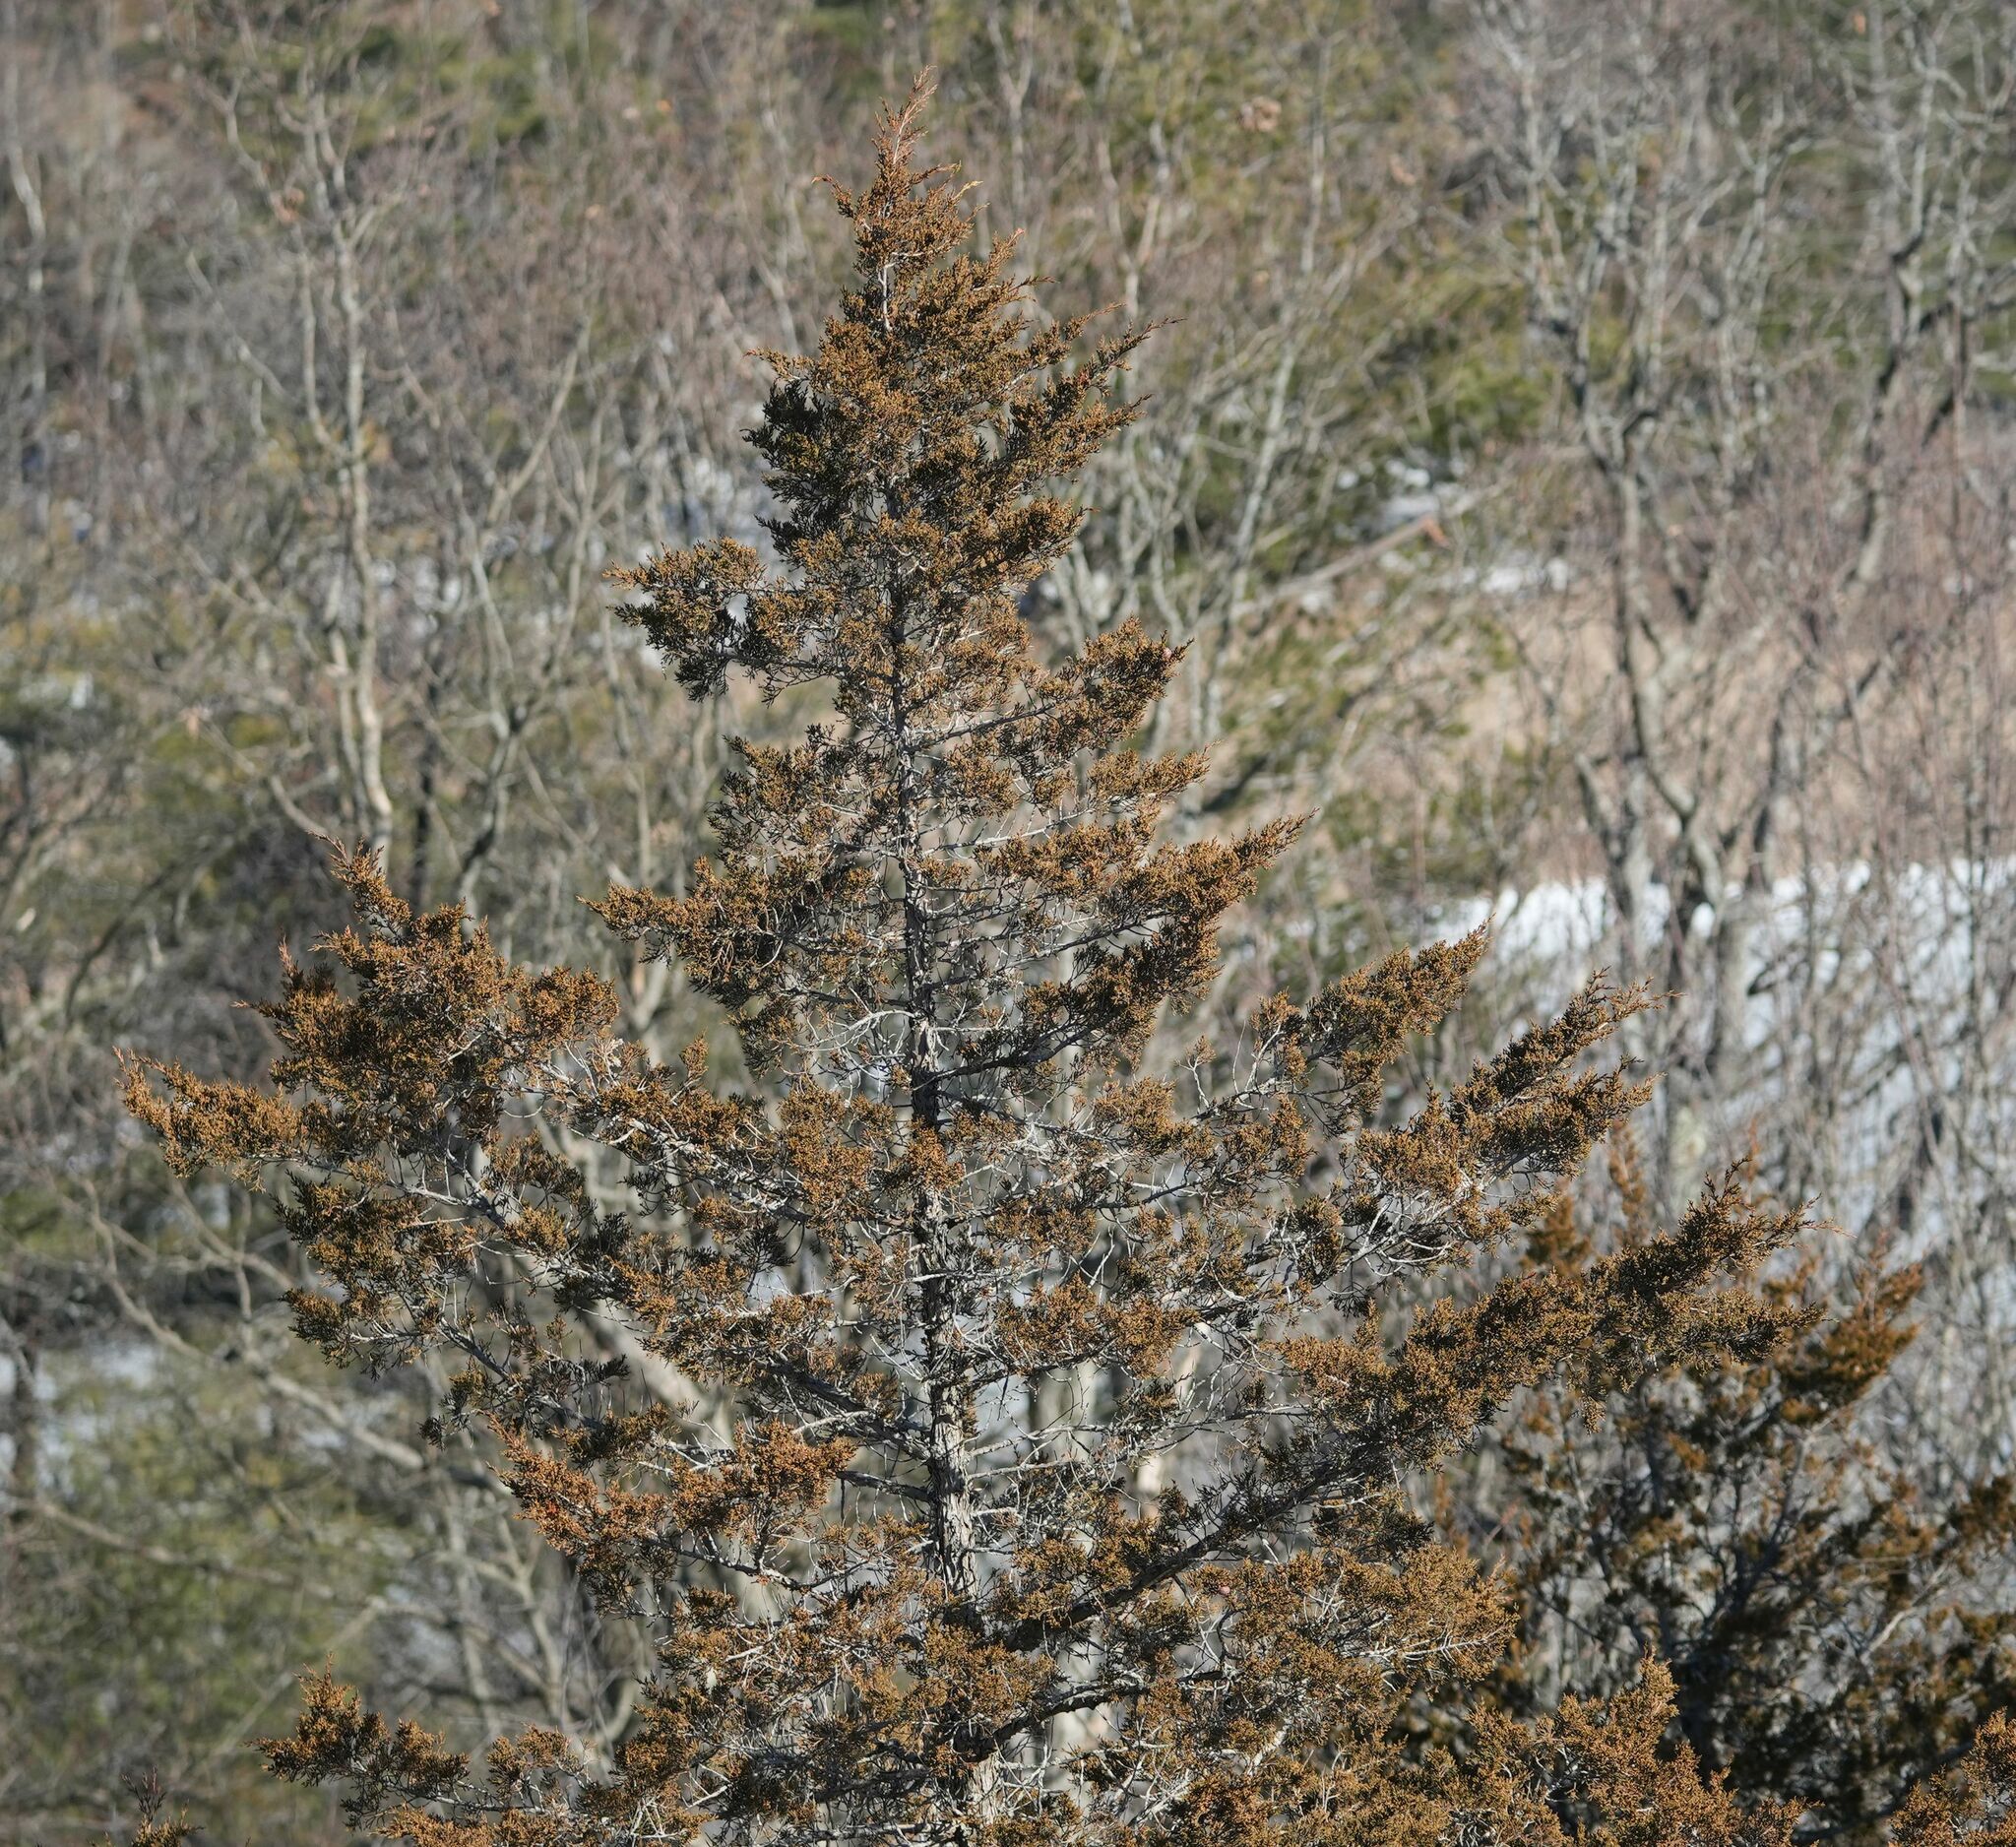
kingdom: Plantae
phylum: Tracheophyta
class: Pinopsida
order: Pinales
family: Cupressaceae
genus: Juniperus
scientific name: Juniperus virginiana
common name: Red juniper
